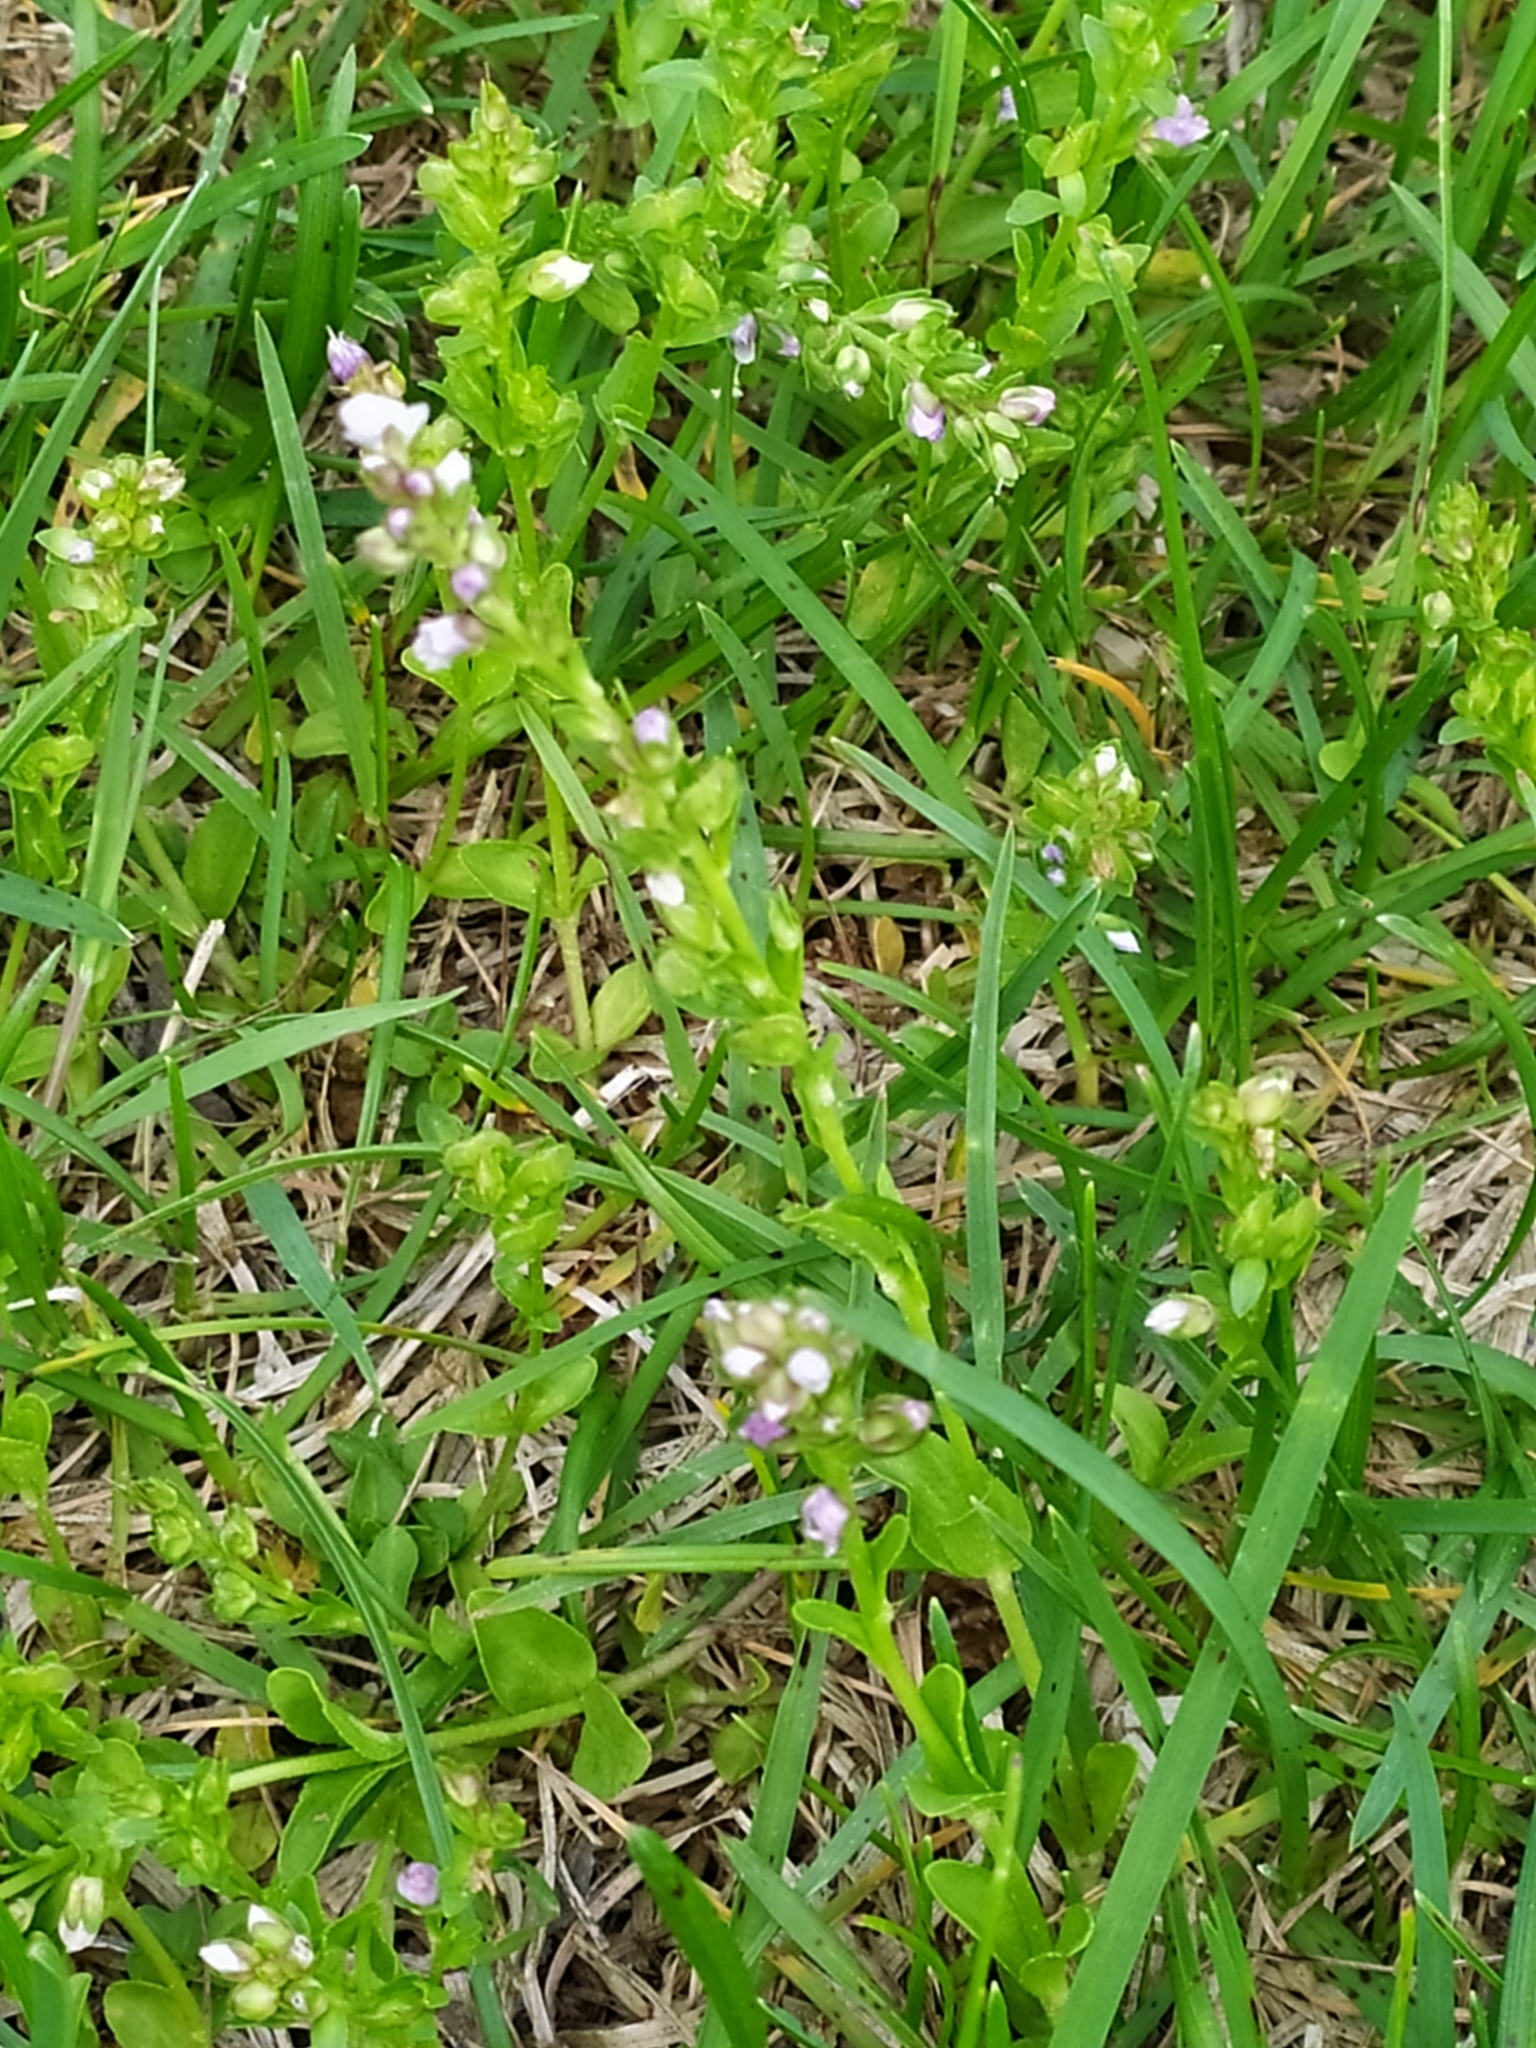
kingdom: Plantae
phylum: Tracheophyta
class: Magnoliopsida
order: Lamiales
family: Plantaginaceae
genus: Veronica
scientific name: Veronica serpyllifolia
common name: Thyme-leaved speedwell
